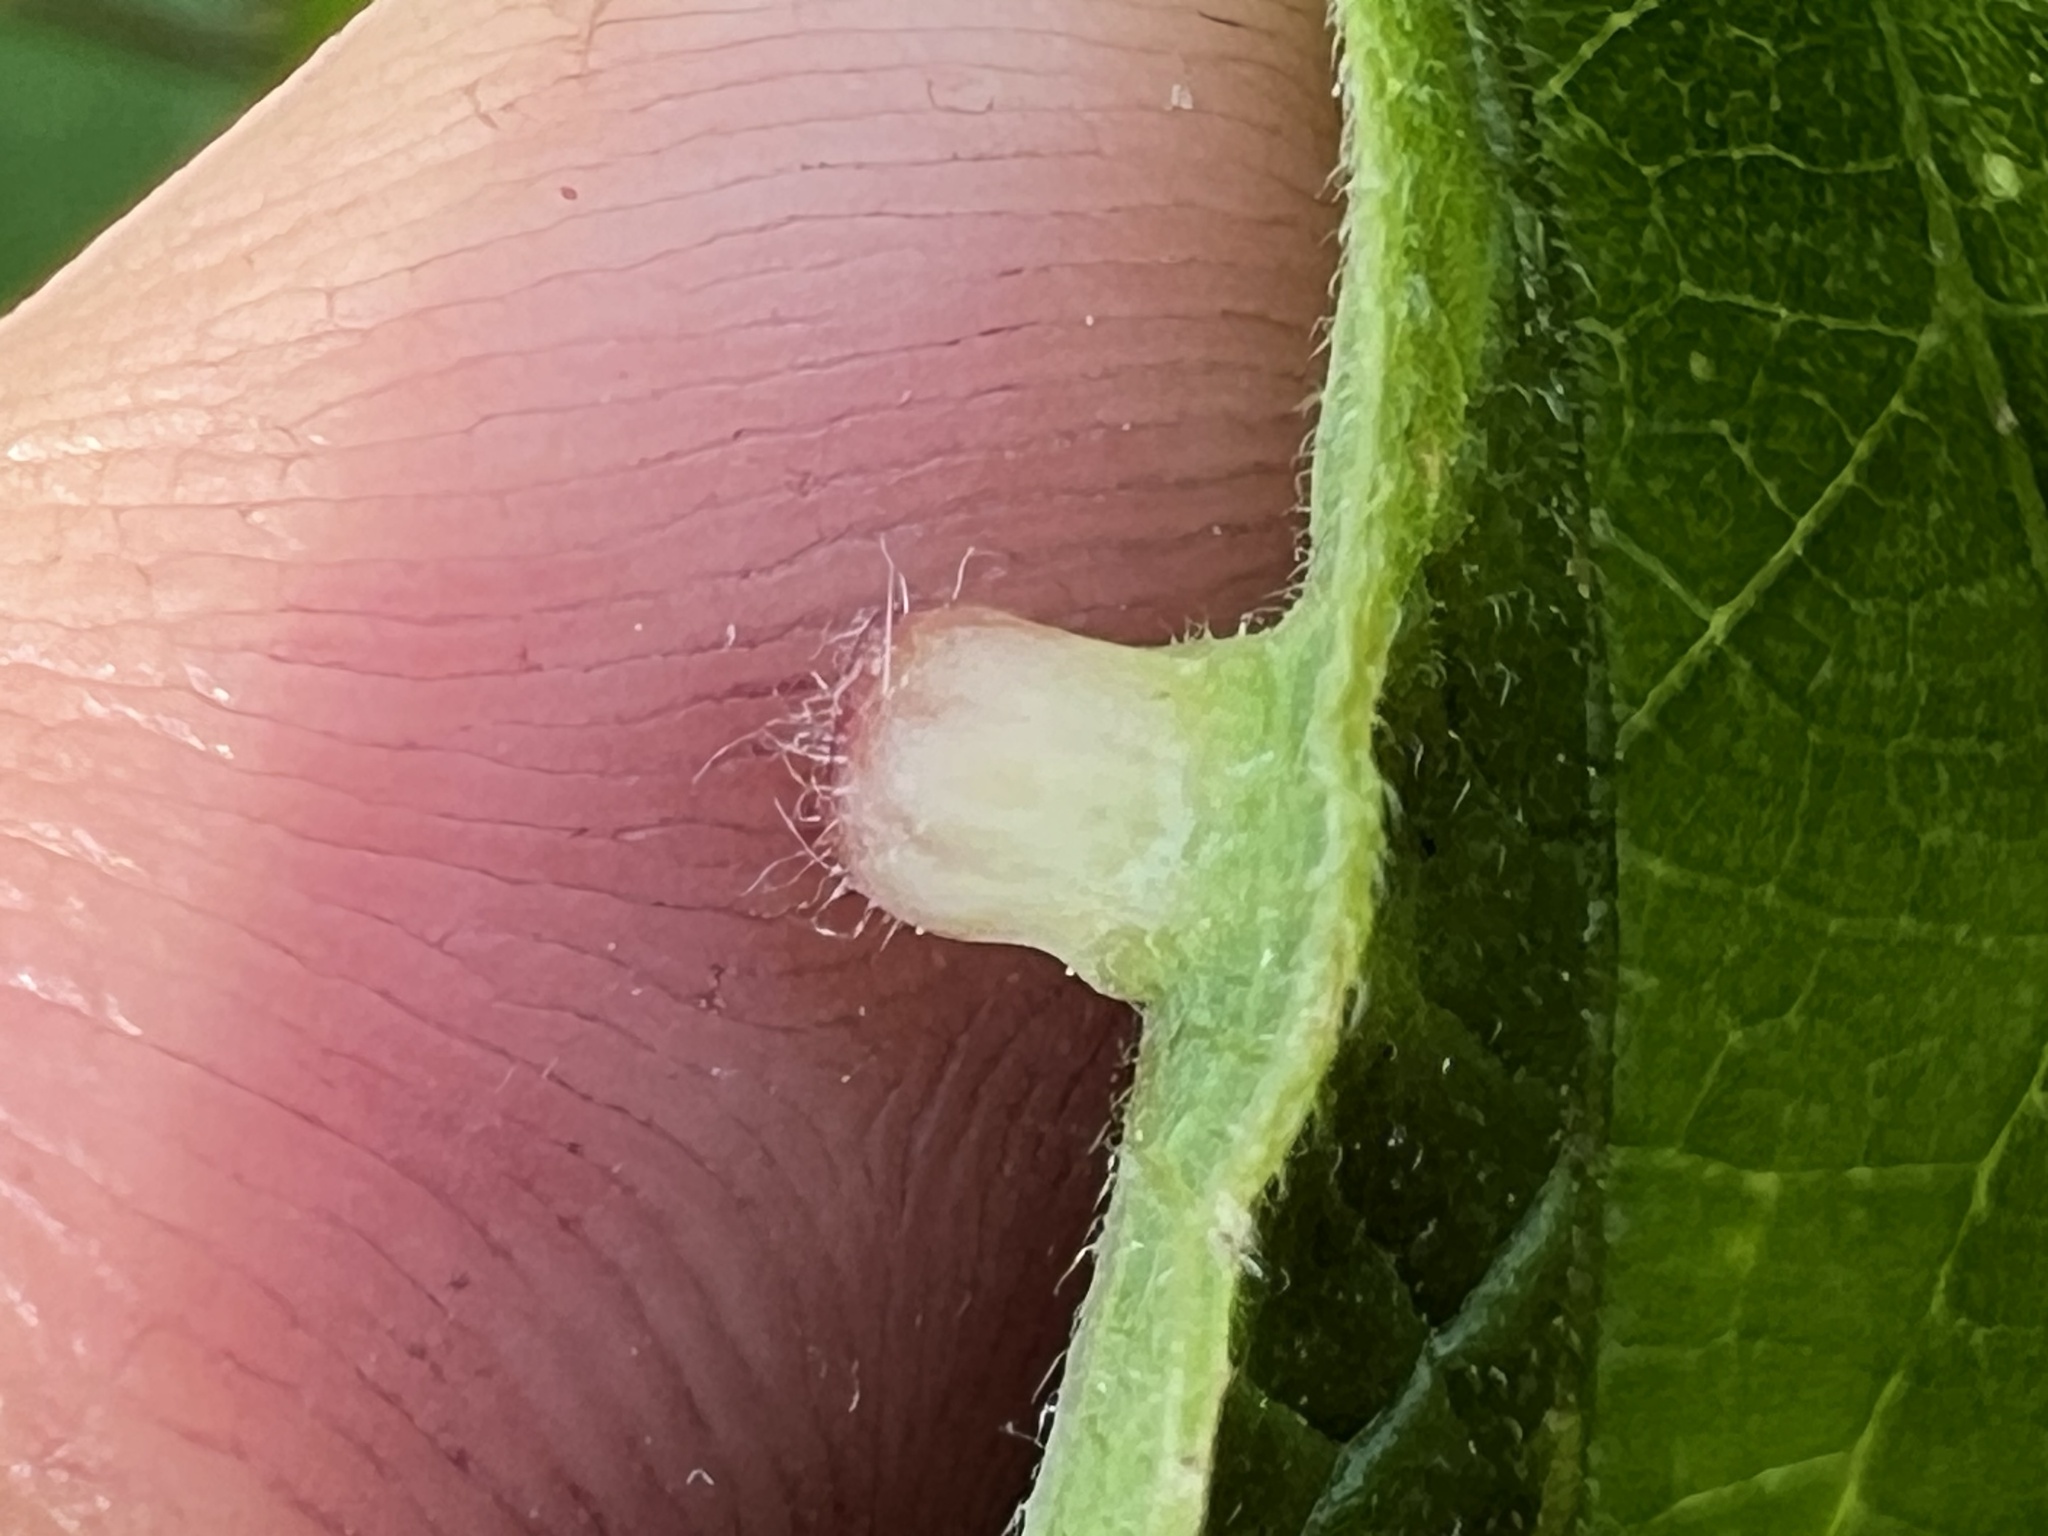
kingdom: Animalia
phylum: Arthropoda
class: Insecta
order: Hemiptera
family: Aphalaridae
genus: Pachypsylla
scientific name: Pachypsylla celtidismamma
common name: Hackberry nipplegall psyllid
